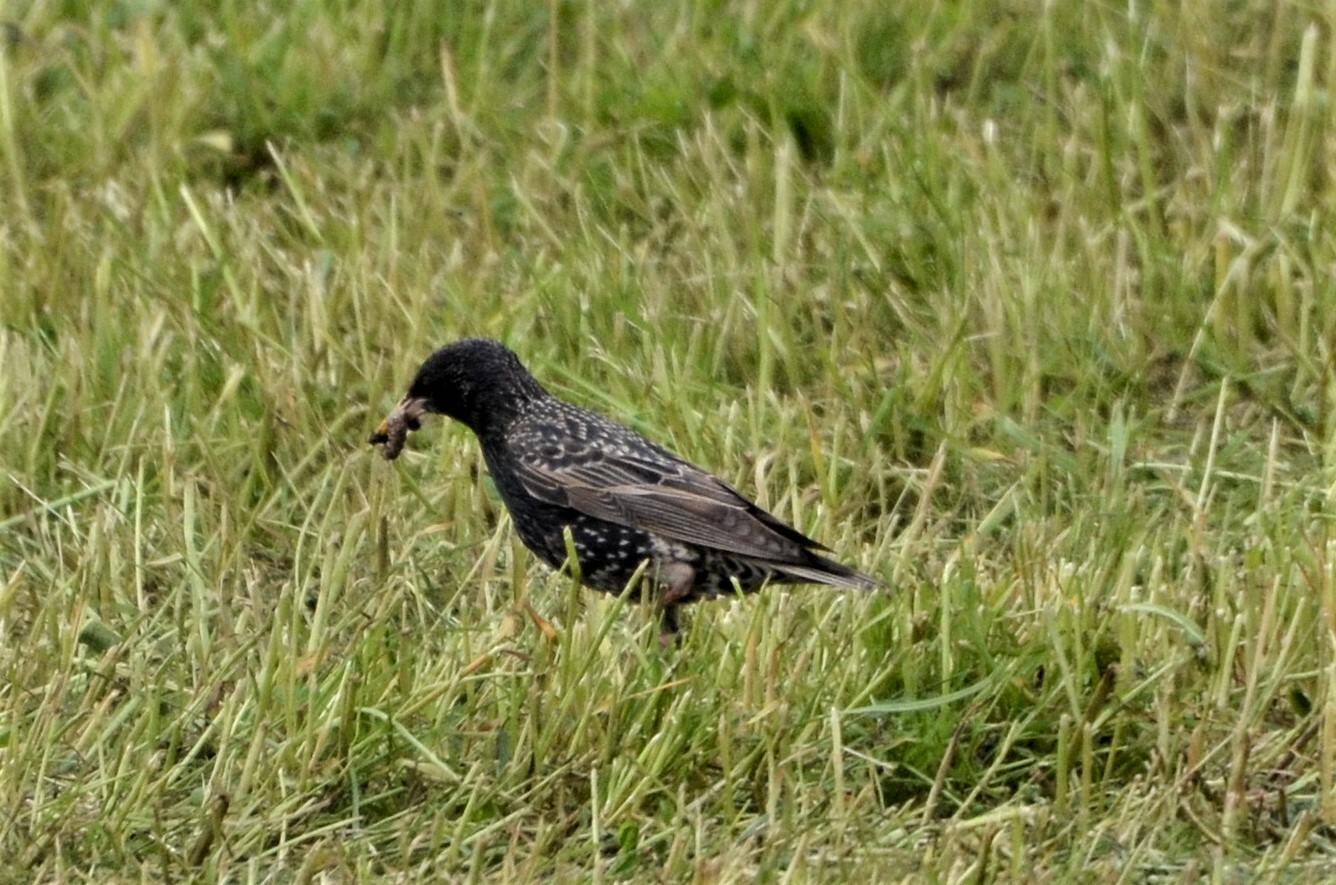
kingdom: Animalia
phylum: Chordata
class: Aves
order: Passeriformes
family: Sturnidae
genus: Sturnus
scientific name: Sturnus vulgaris
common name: Common starling
